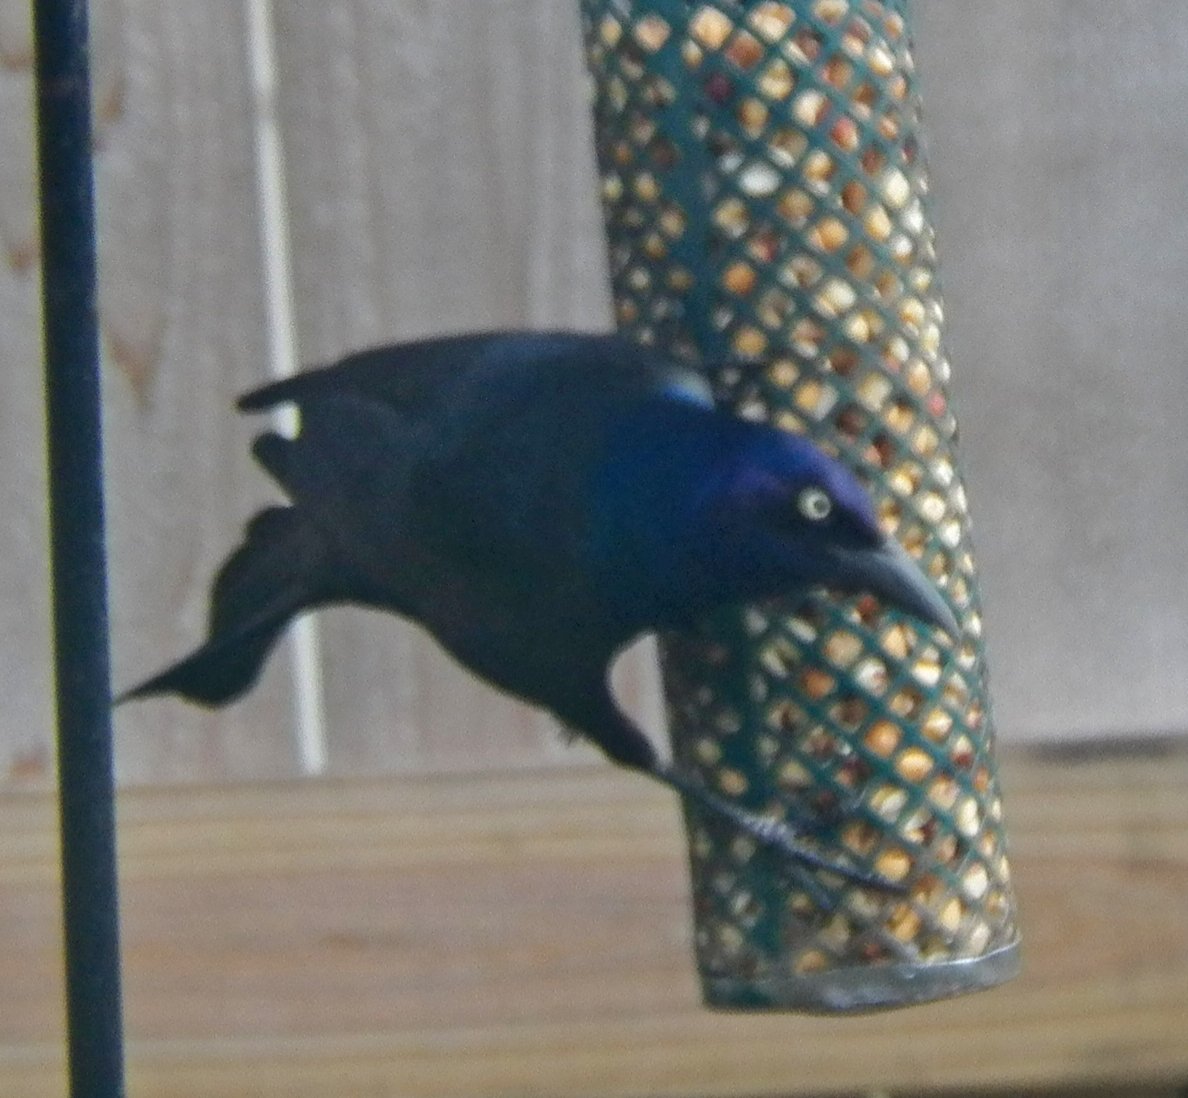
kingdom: Animalia
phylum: Chordata
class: Aves
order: Passeriformes
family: Icteridae
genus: Quiscalus
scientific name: Quiscalus quiscula
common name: Common grackle
